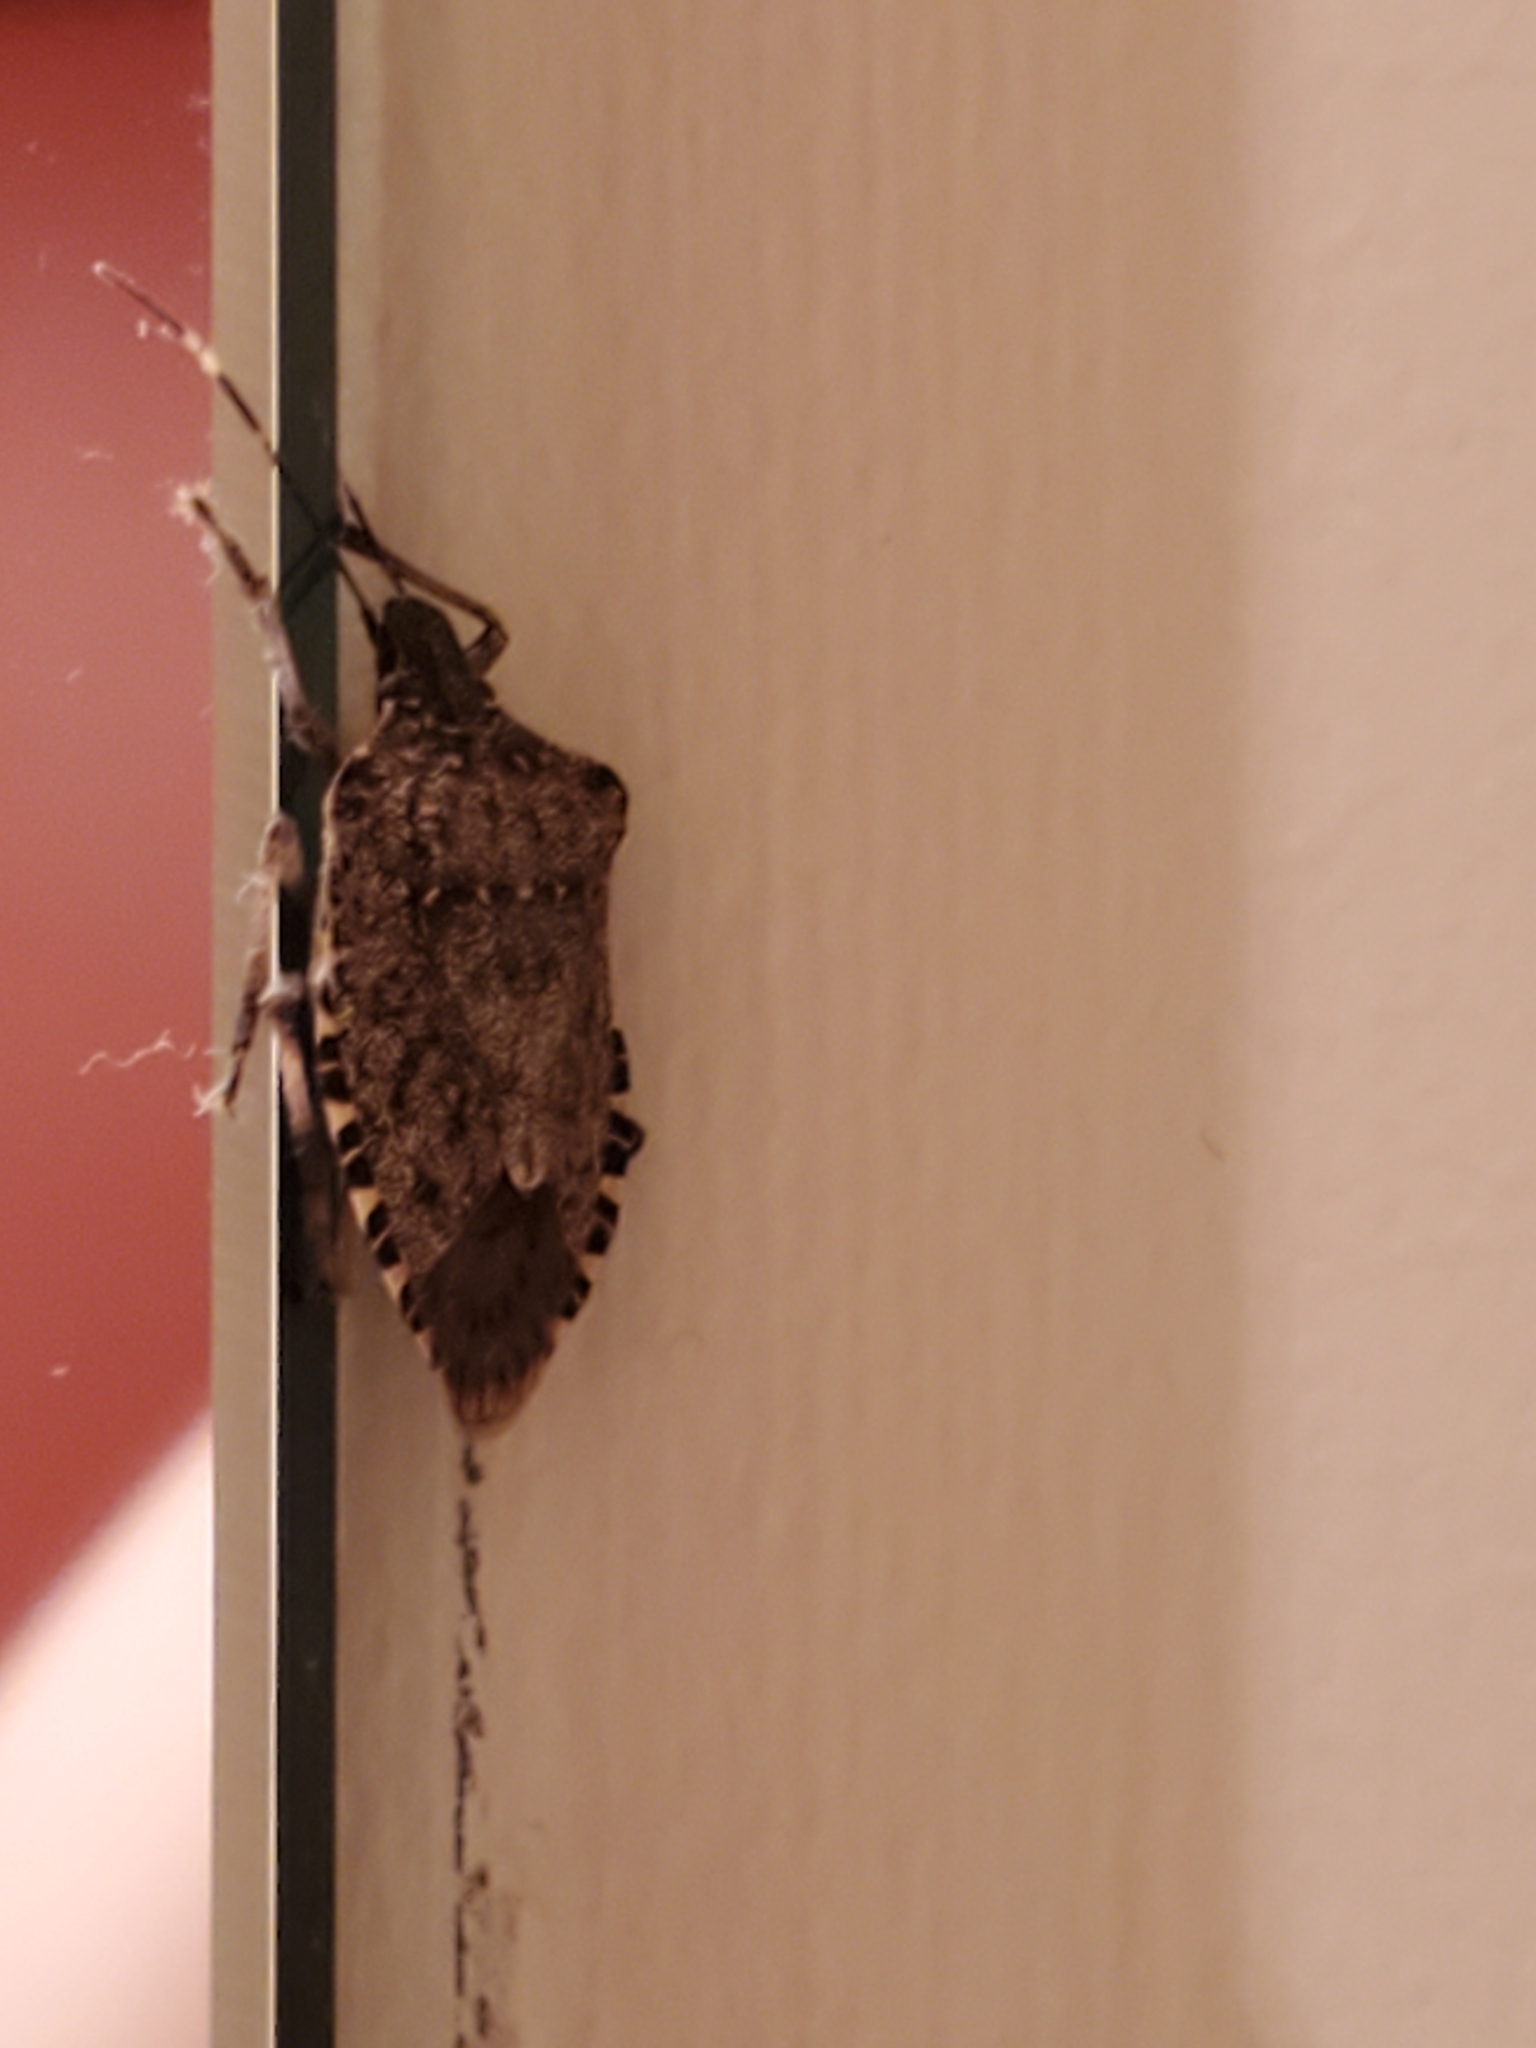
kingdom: Animalia
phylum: Arthropoda
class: Insecta
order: Hemiptera
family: Pentatomidae
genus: Halyomorpha
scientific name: Halyomorpha halys
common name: Brown marmorated stink bug
